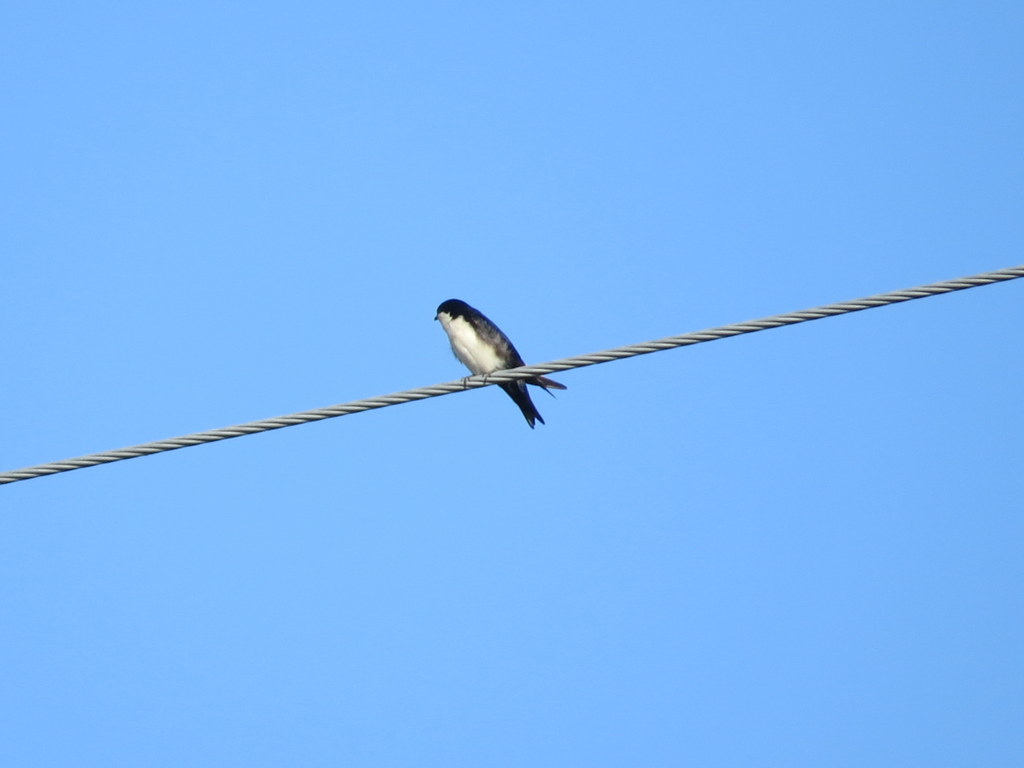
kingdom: Animalia
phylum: Chordata
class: Aves
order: Passeriformes
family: Hirundinidae
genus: Notiochelidon
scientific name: Notiochelidon cyanoleuca
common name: Blue-and-white swallow
